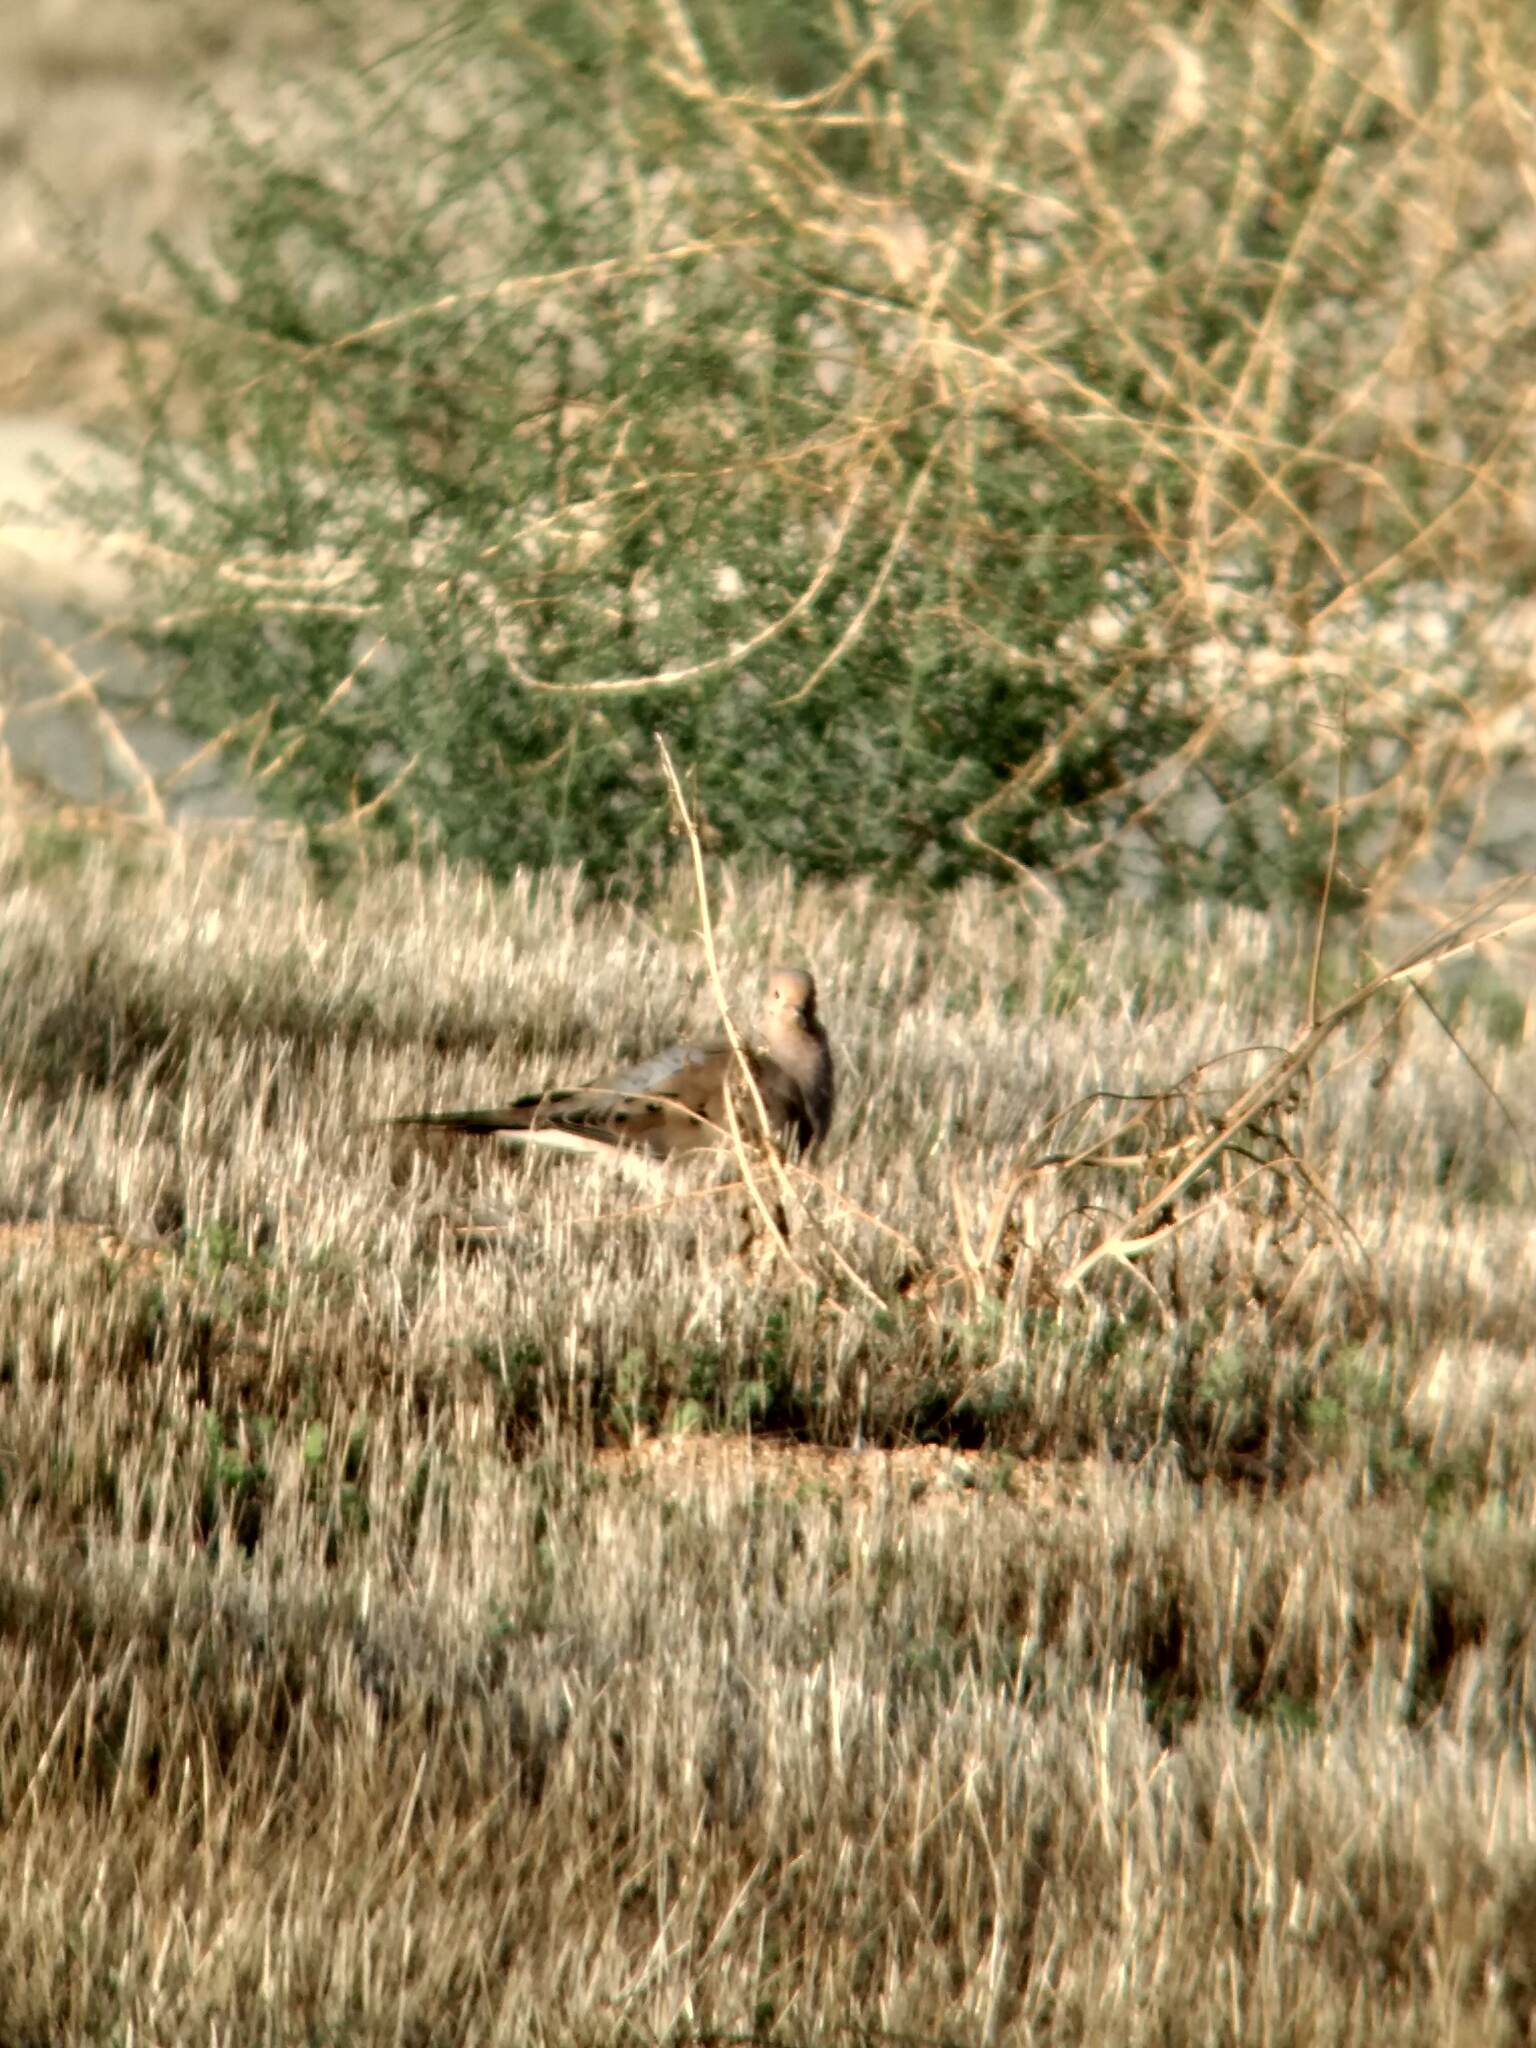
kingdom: Animalia
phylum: Chordata
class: Aves
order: Columbiformes
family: Columbidae
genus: Zenaida
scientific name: Zenaida macroura
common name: Mourning dove
